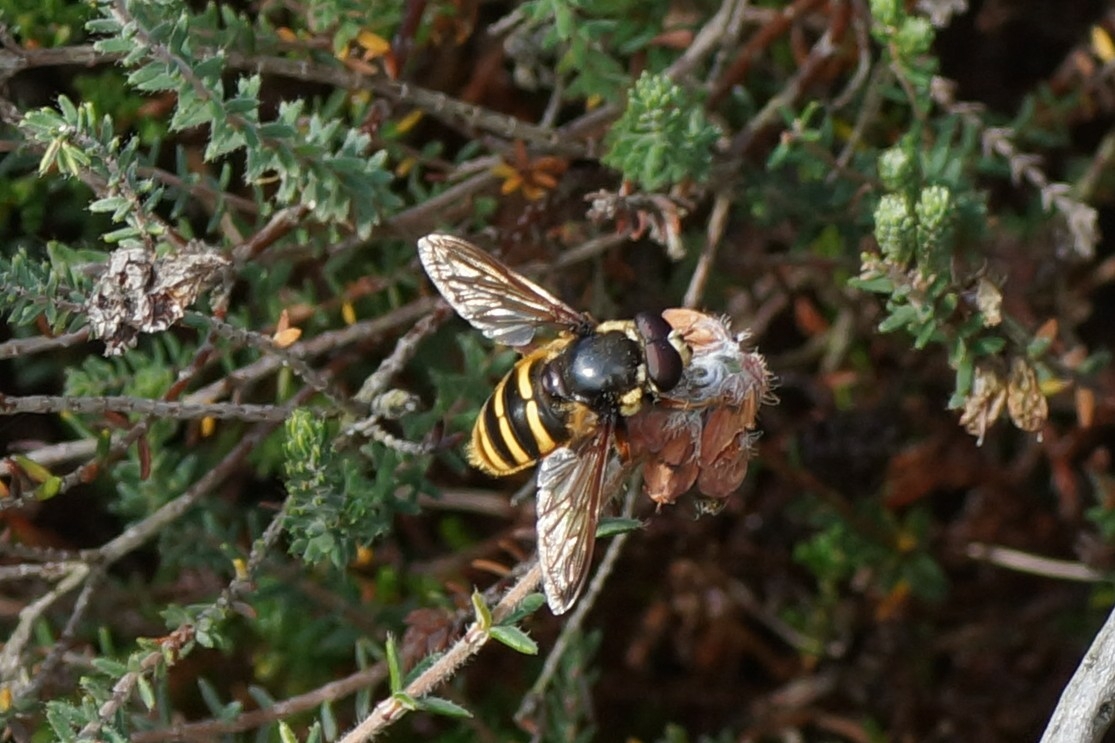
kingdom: Animalia
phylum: Arthropoda
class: Insecta
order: Diptera
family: Syrphidae
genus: Sericomyia
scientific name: Sericomyia silentis
